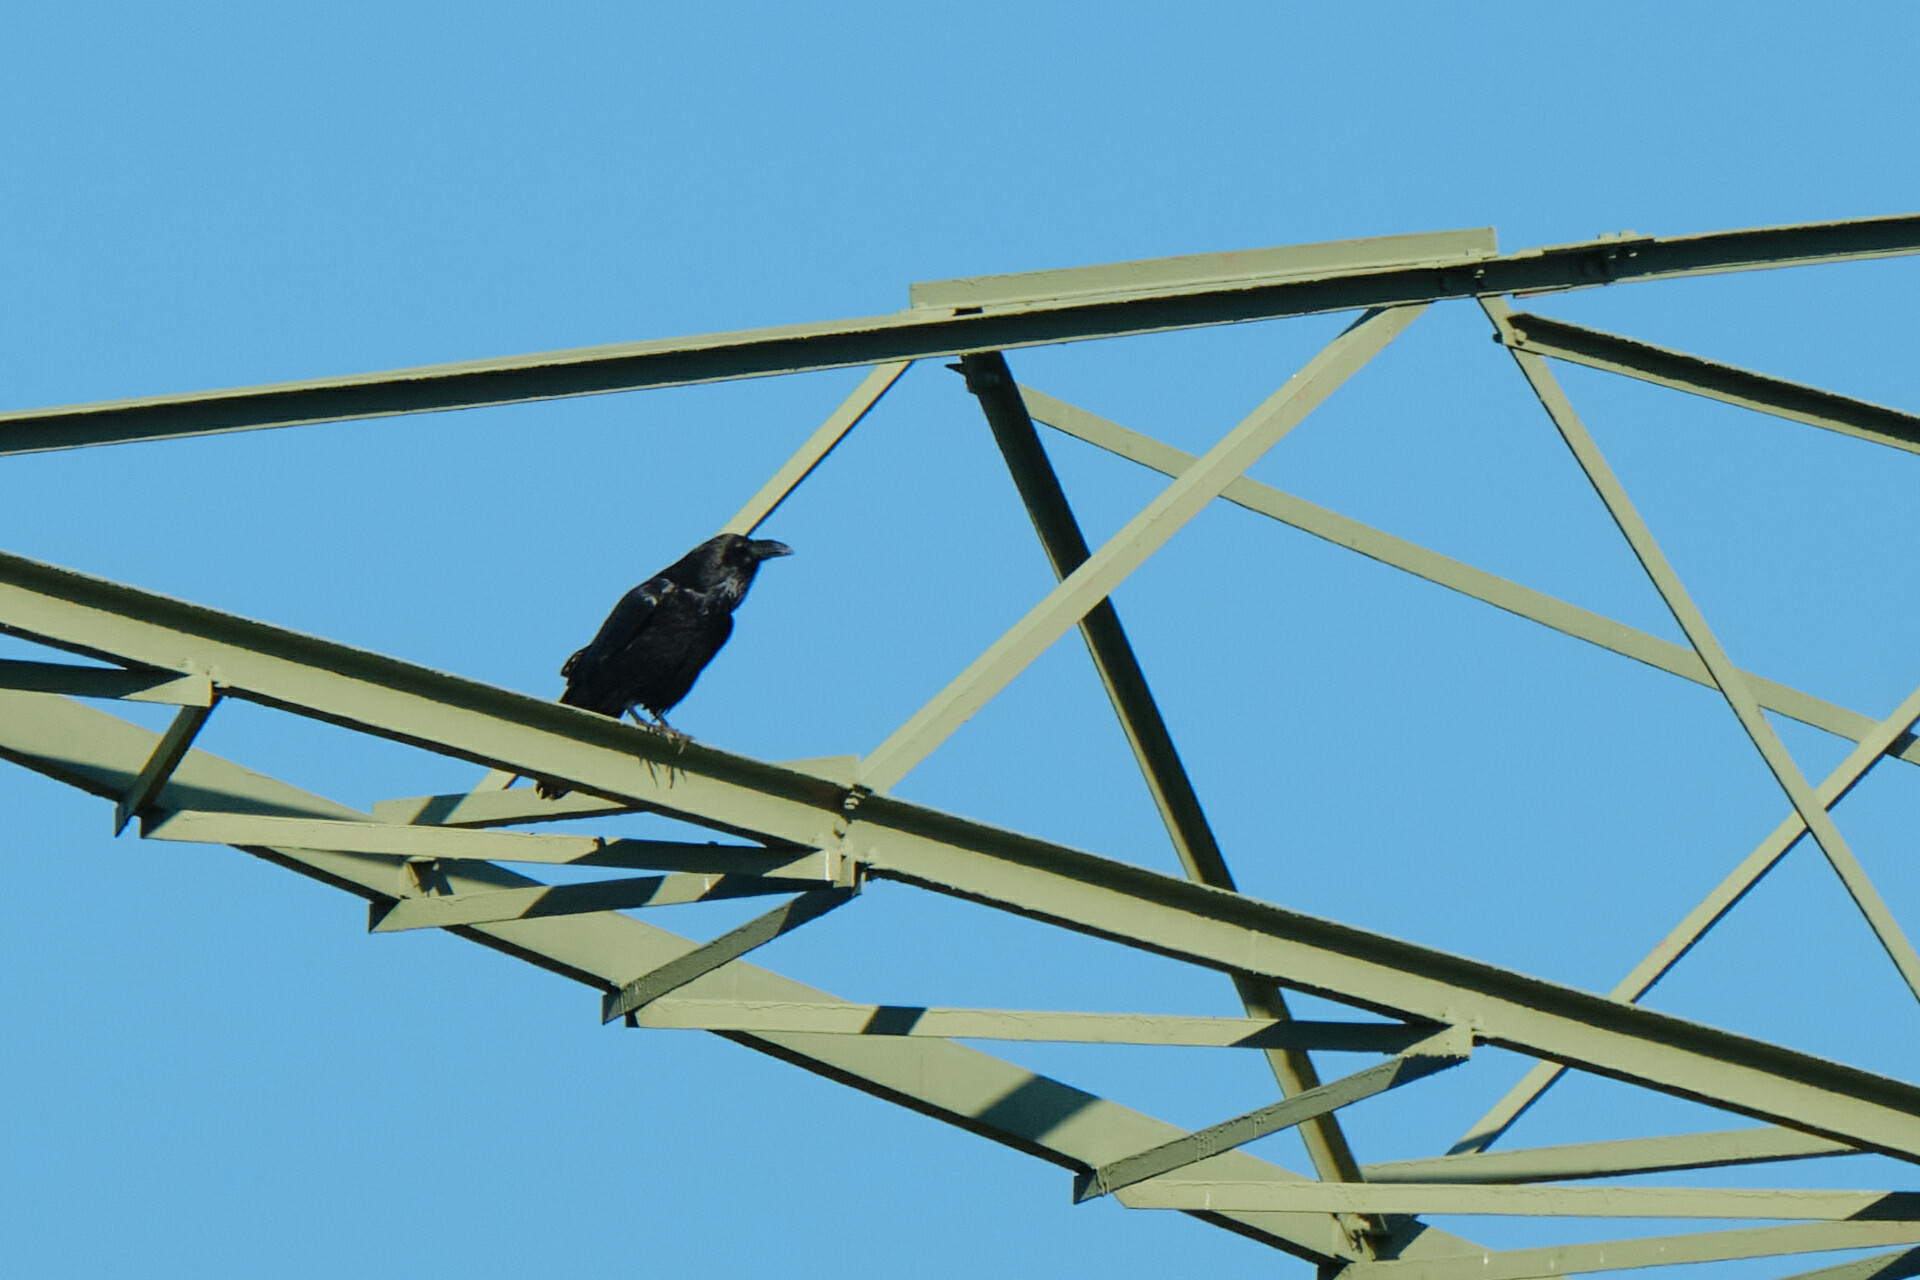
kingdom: Animalia
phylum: Chordata
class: Aves
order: Passeriformes
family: Corvidae
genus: Corvus
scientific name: Corvus corax
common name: Common raven
